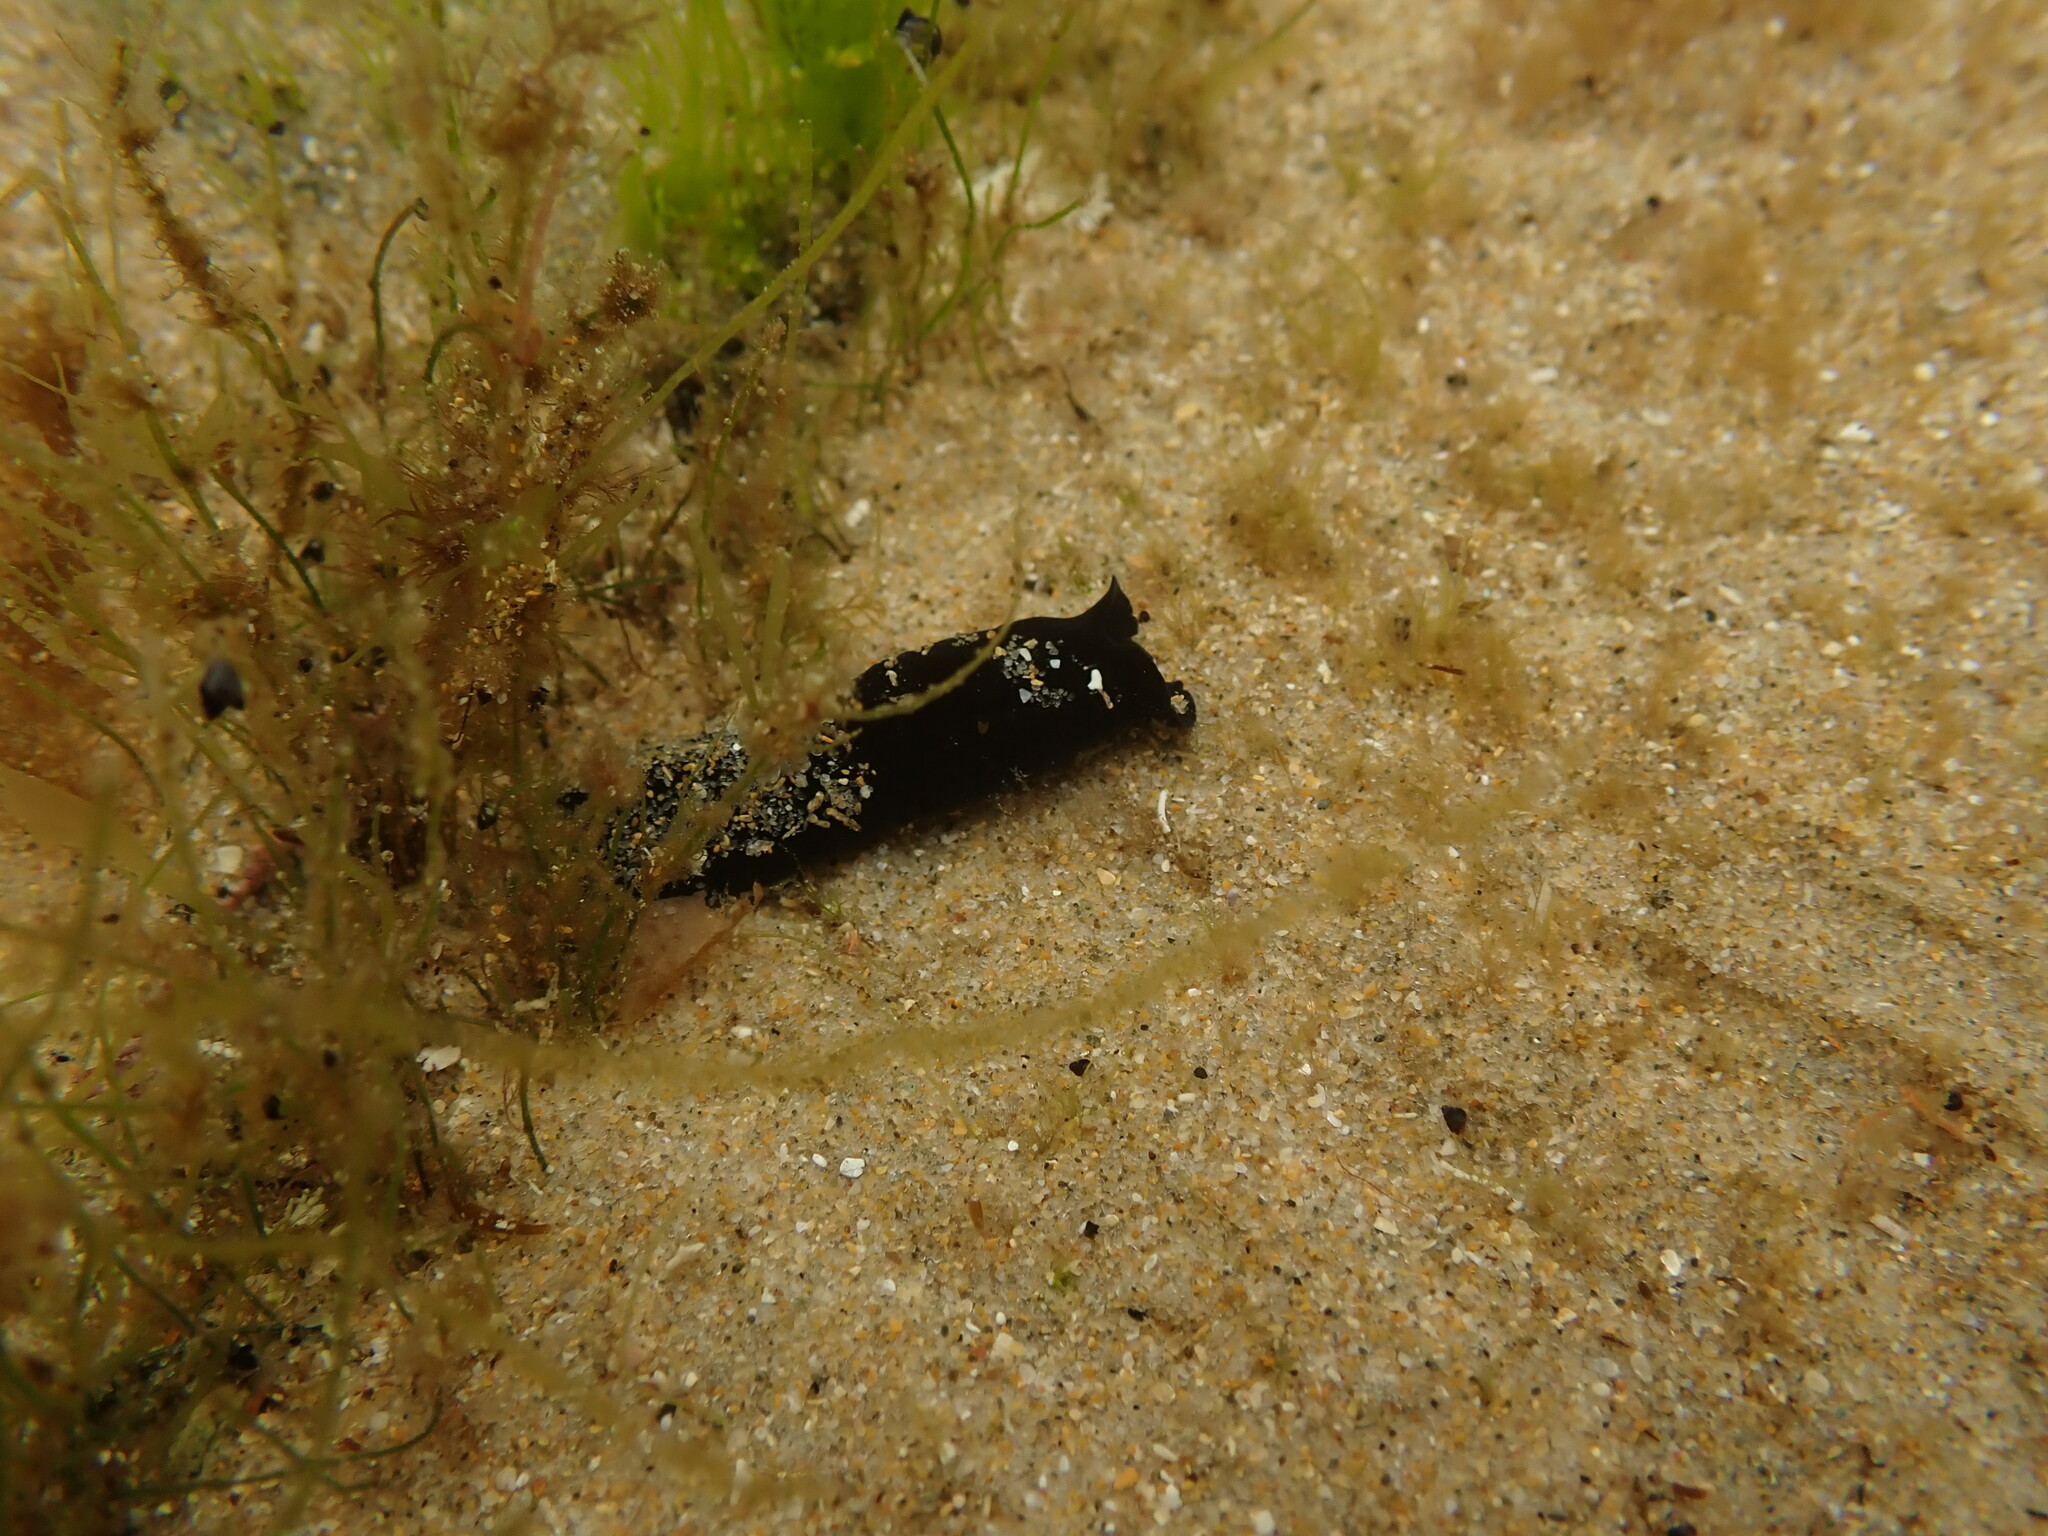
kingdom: Animalia
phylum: Mollusca
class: Gastropoda
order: Cephalaspidea
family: Aglajidae
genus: Melanochlamys
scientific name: Melanochlamys cylindrica
